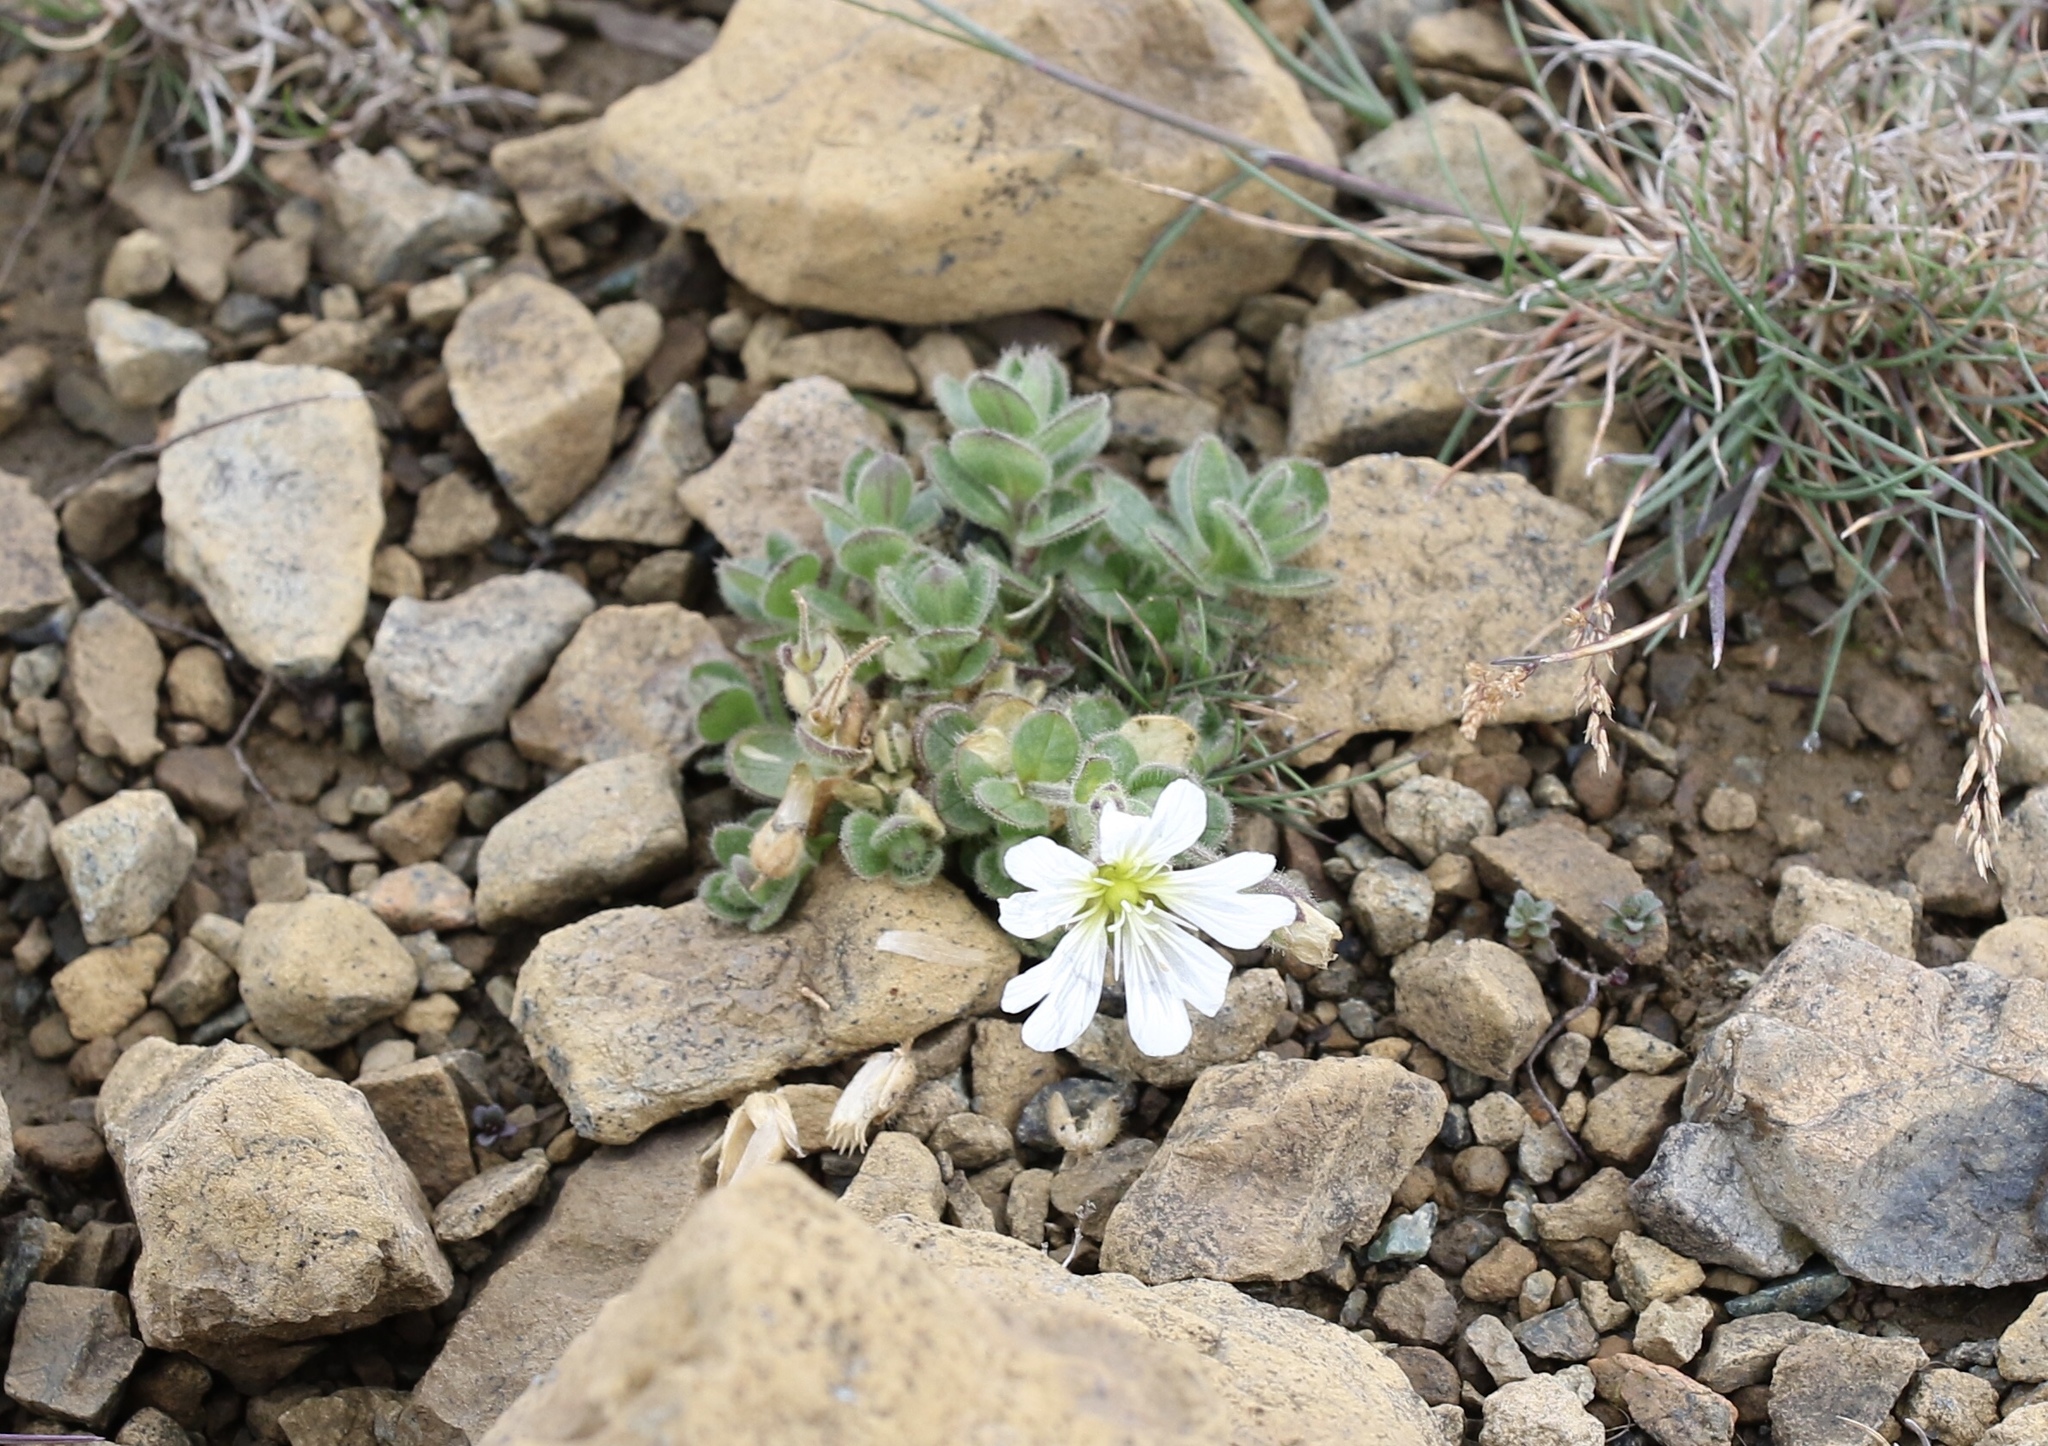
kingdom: Plantae
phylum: Tracheophyta
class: Magnoliopsida
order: Caryophyllales
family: Caryophyllaceae
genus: Cerastium
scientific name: Cerastium nigrescens
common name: Shetland mouse-ear
